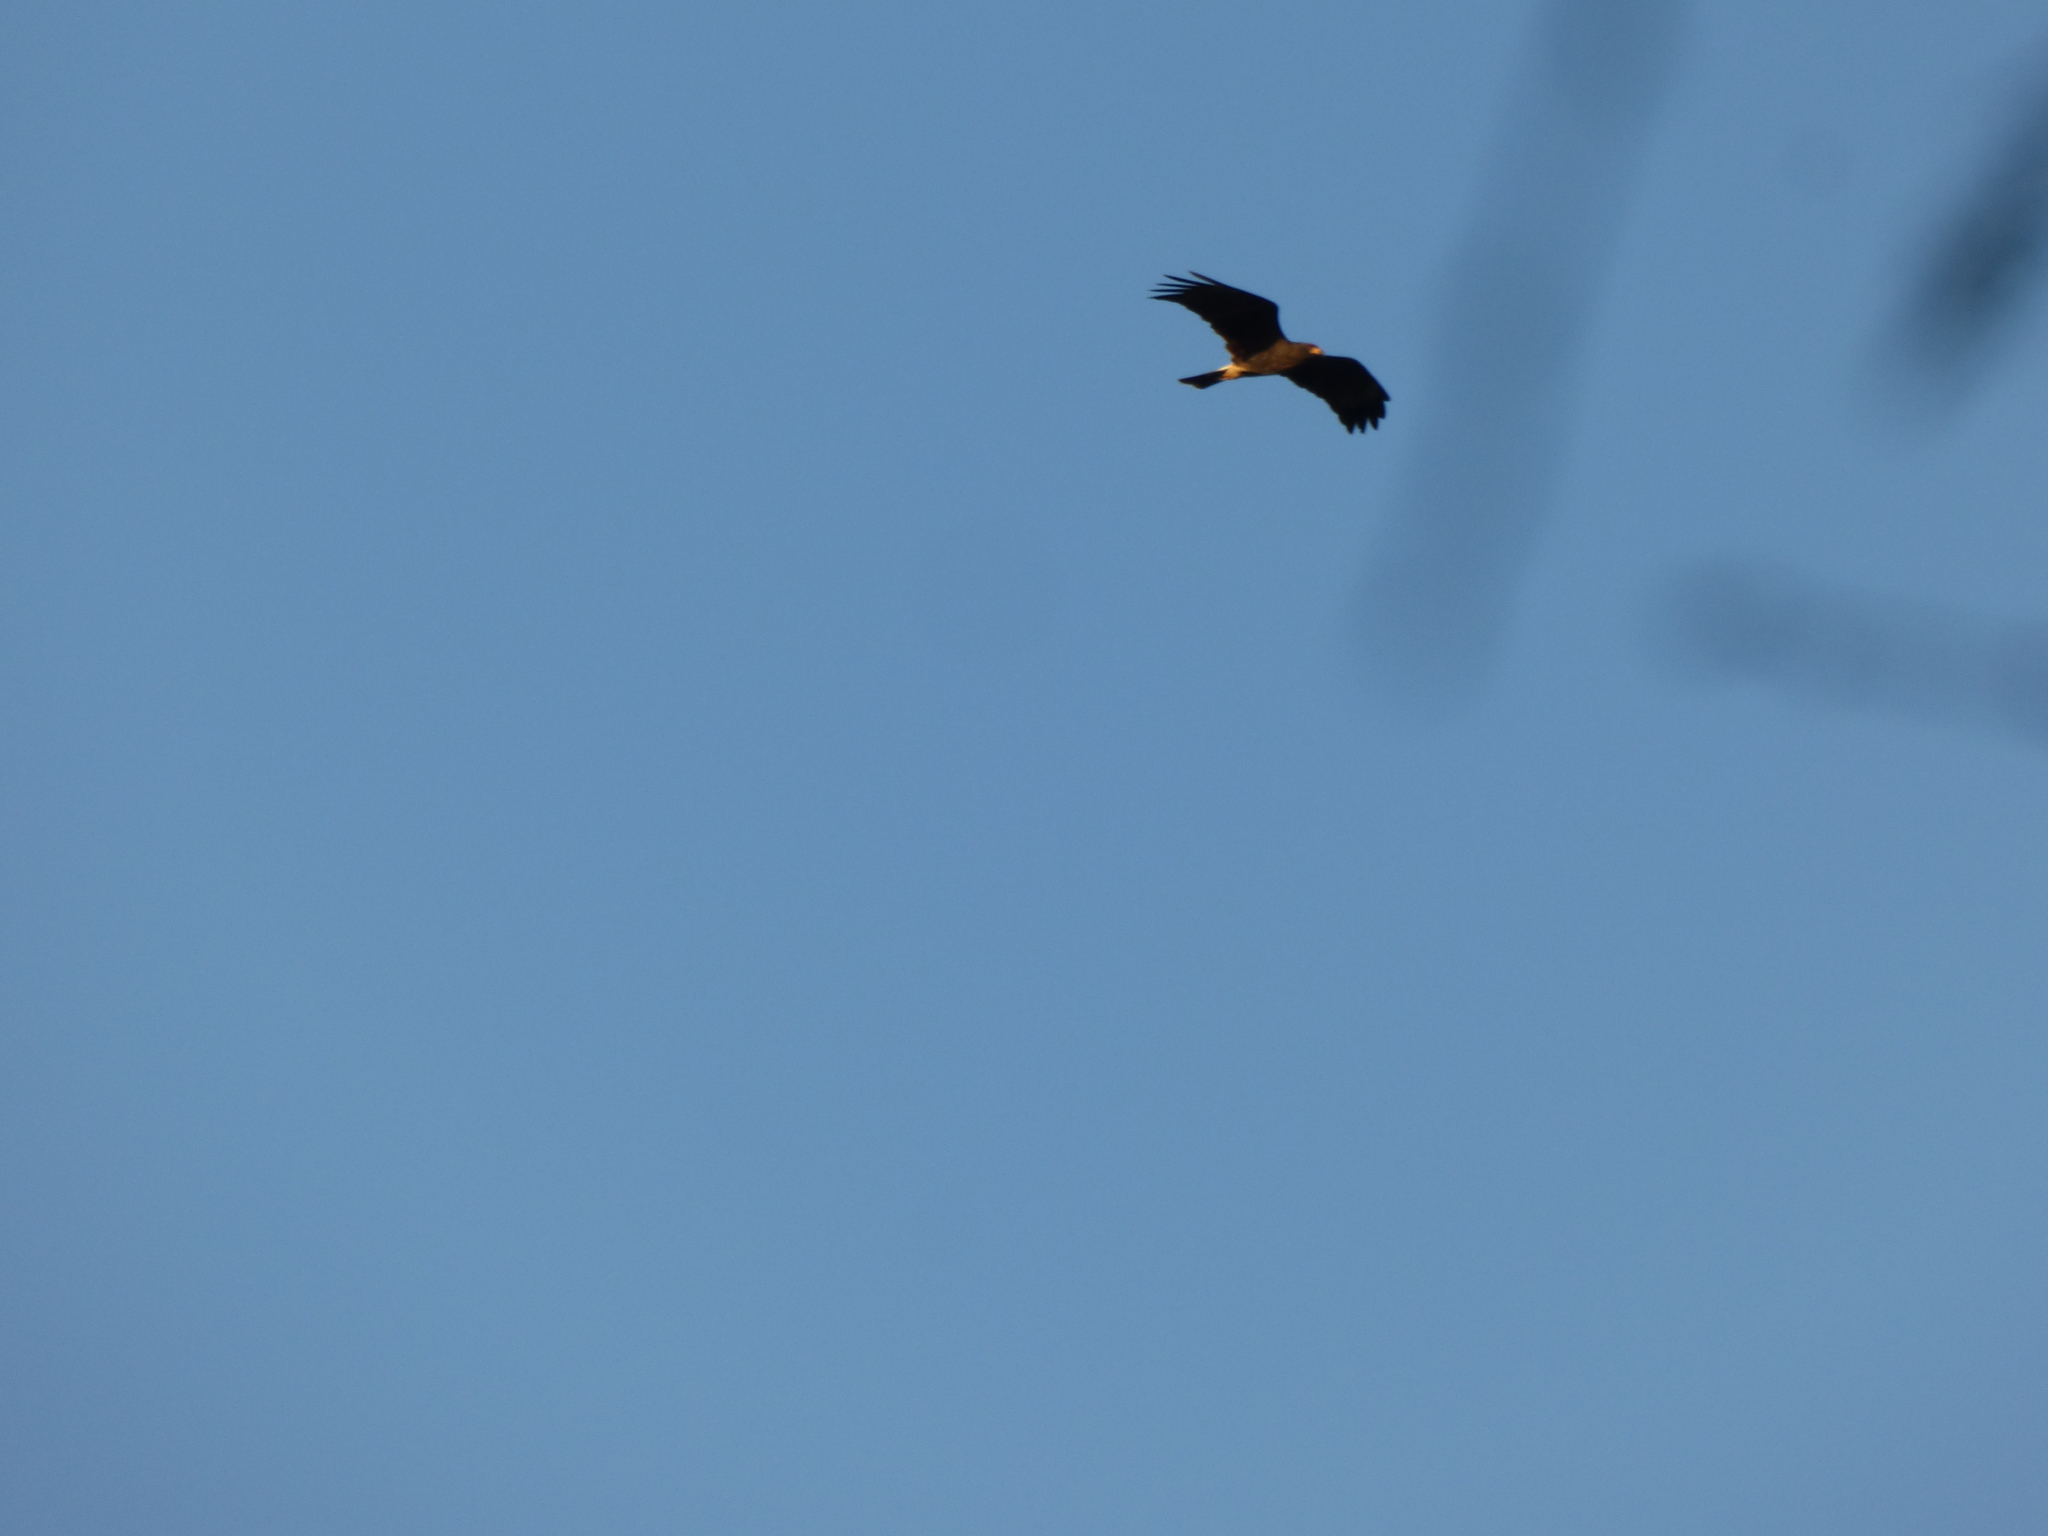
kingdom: Animalia
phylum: Chordata
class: Aves
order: Accipitriformes
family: Accipitridae
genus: Rostrhamus
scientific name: Rostrhamus sociabilis
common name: Snail kite
